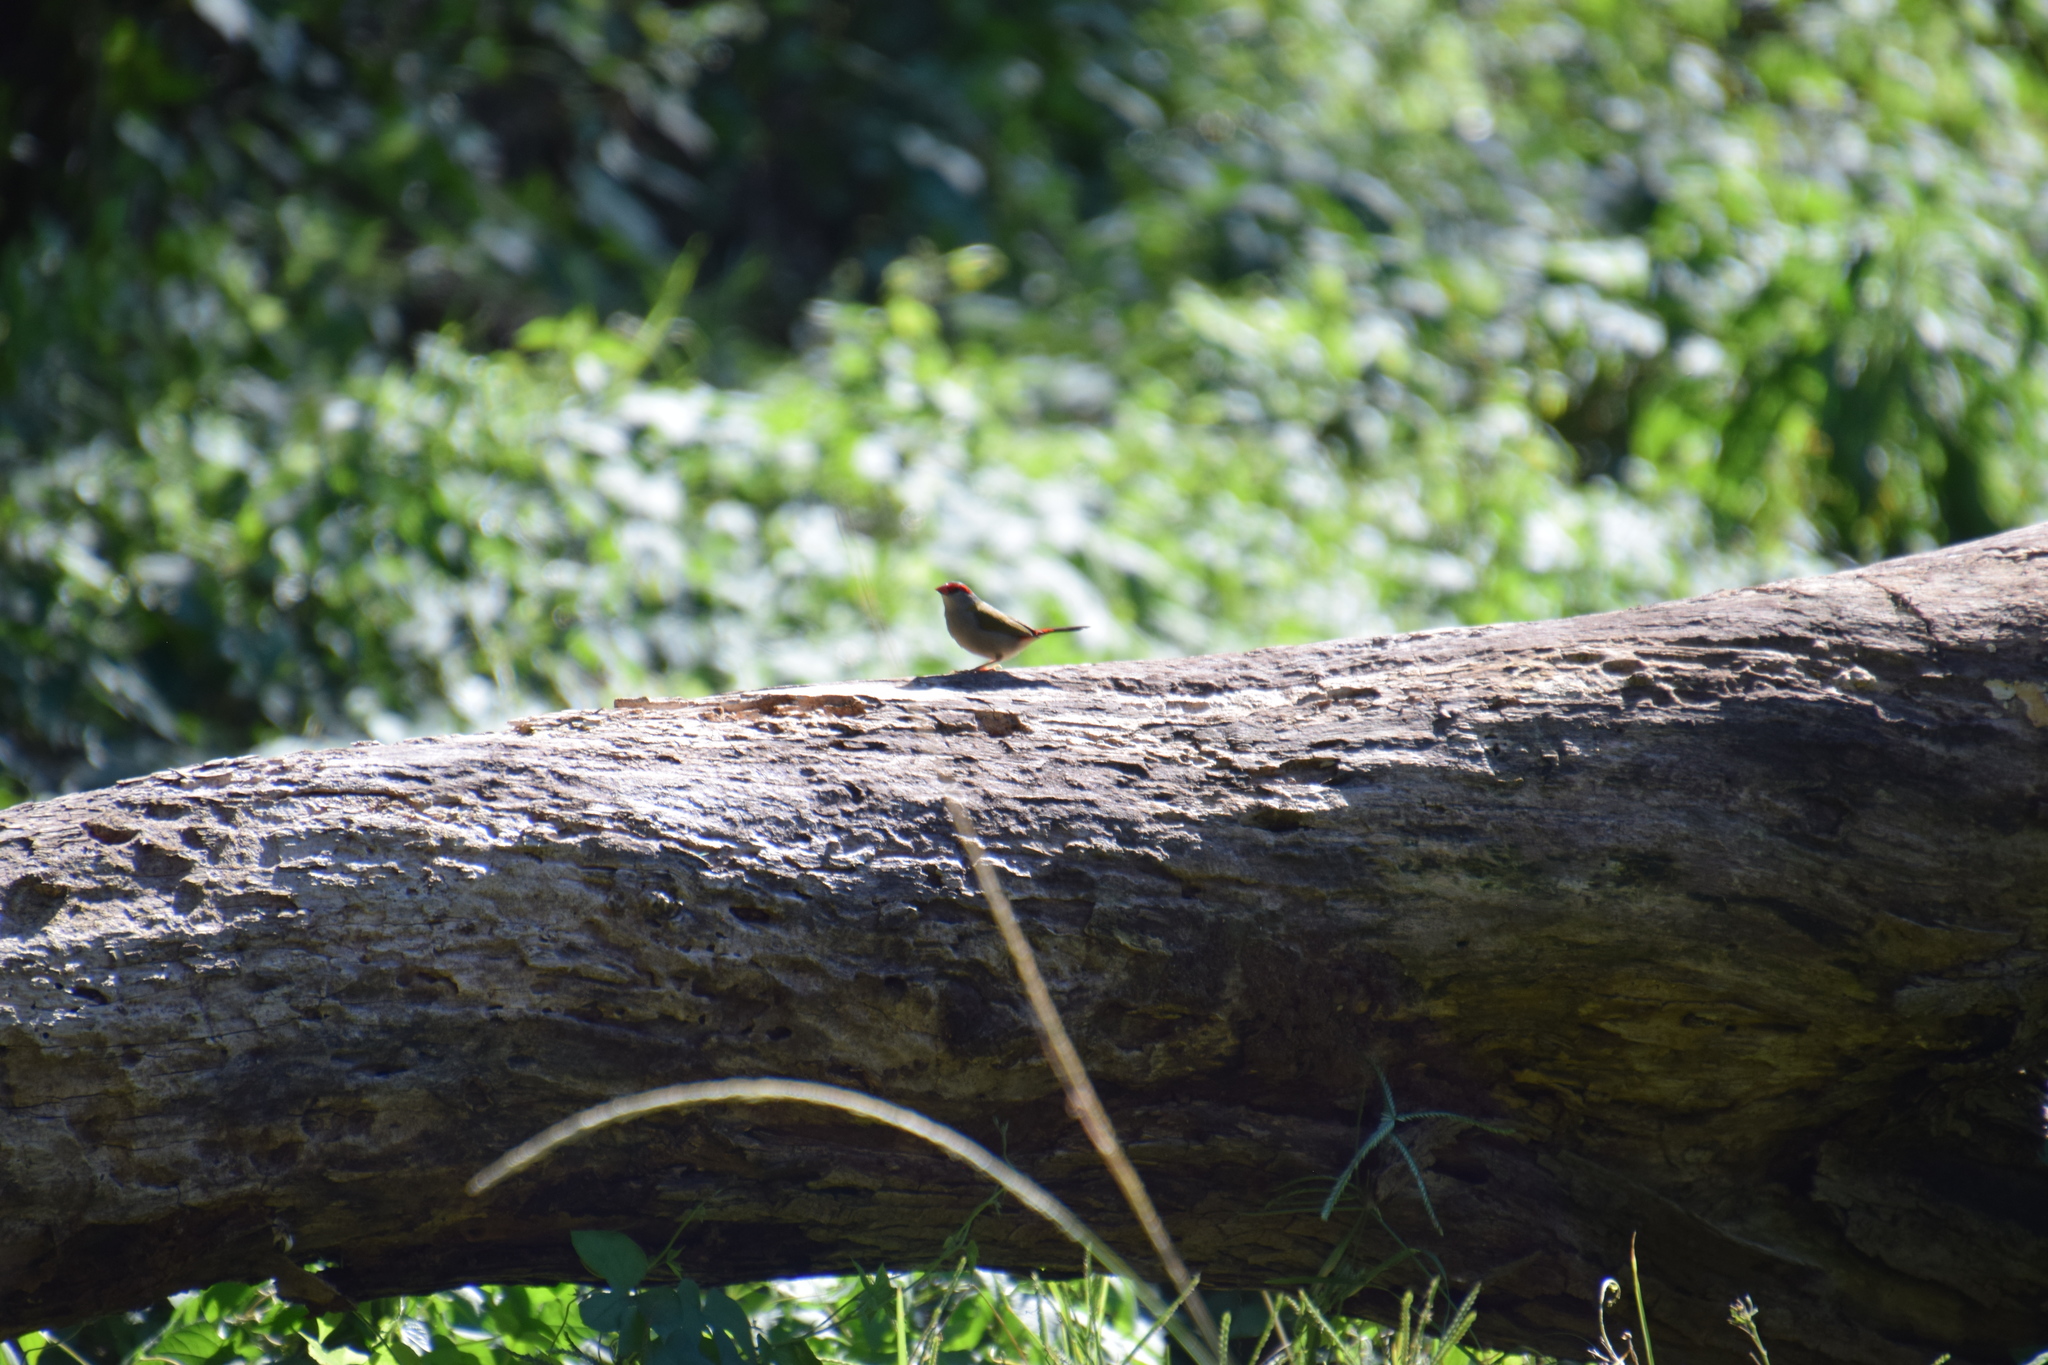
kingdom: Animalia
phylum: Chordata
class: Aves
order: Passeriformes
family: Estrildidae
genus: Neochmia
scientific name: Neochmia temporalis
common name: Red-browed finch
